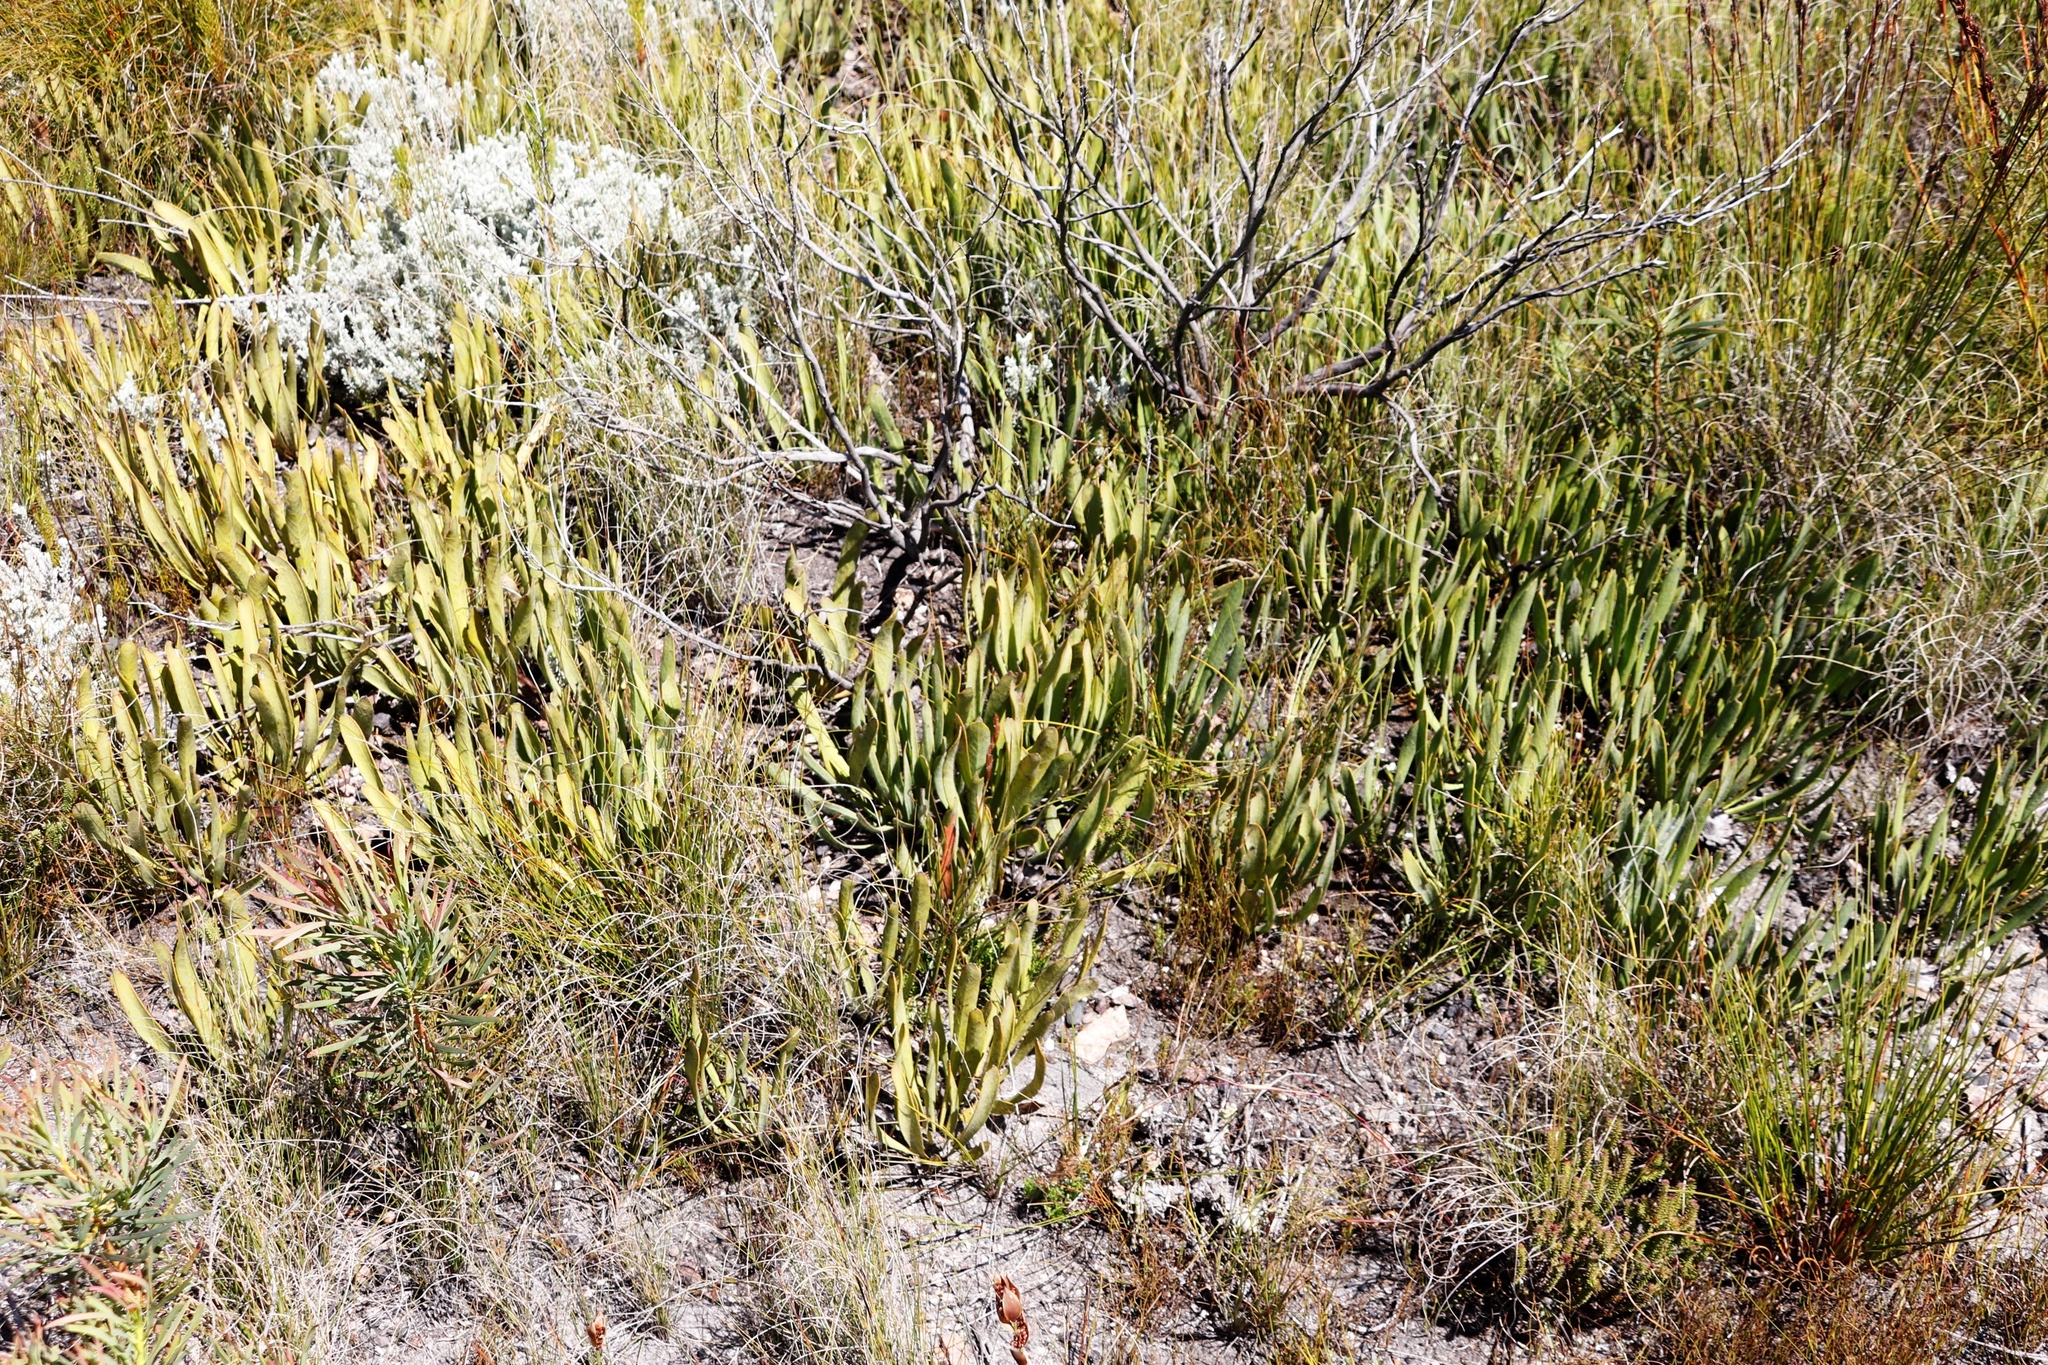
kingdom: Plantae
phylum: Tracheophyta
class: Magnoliopsida
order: Proteales
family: Proteaceae
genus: Protea
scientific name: Protea scabra
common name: Sandpaper-leaf sugarbush
